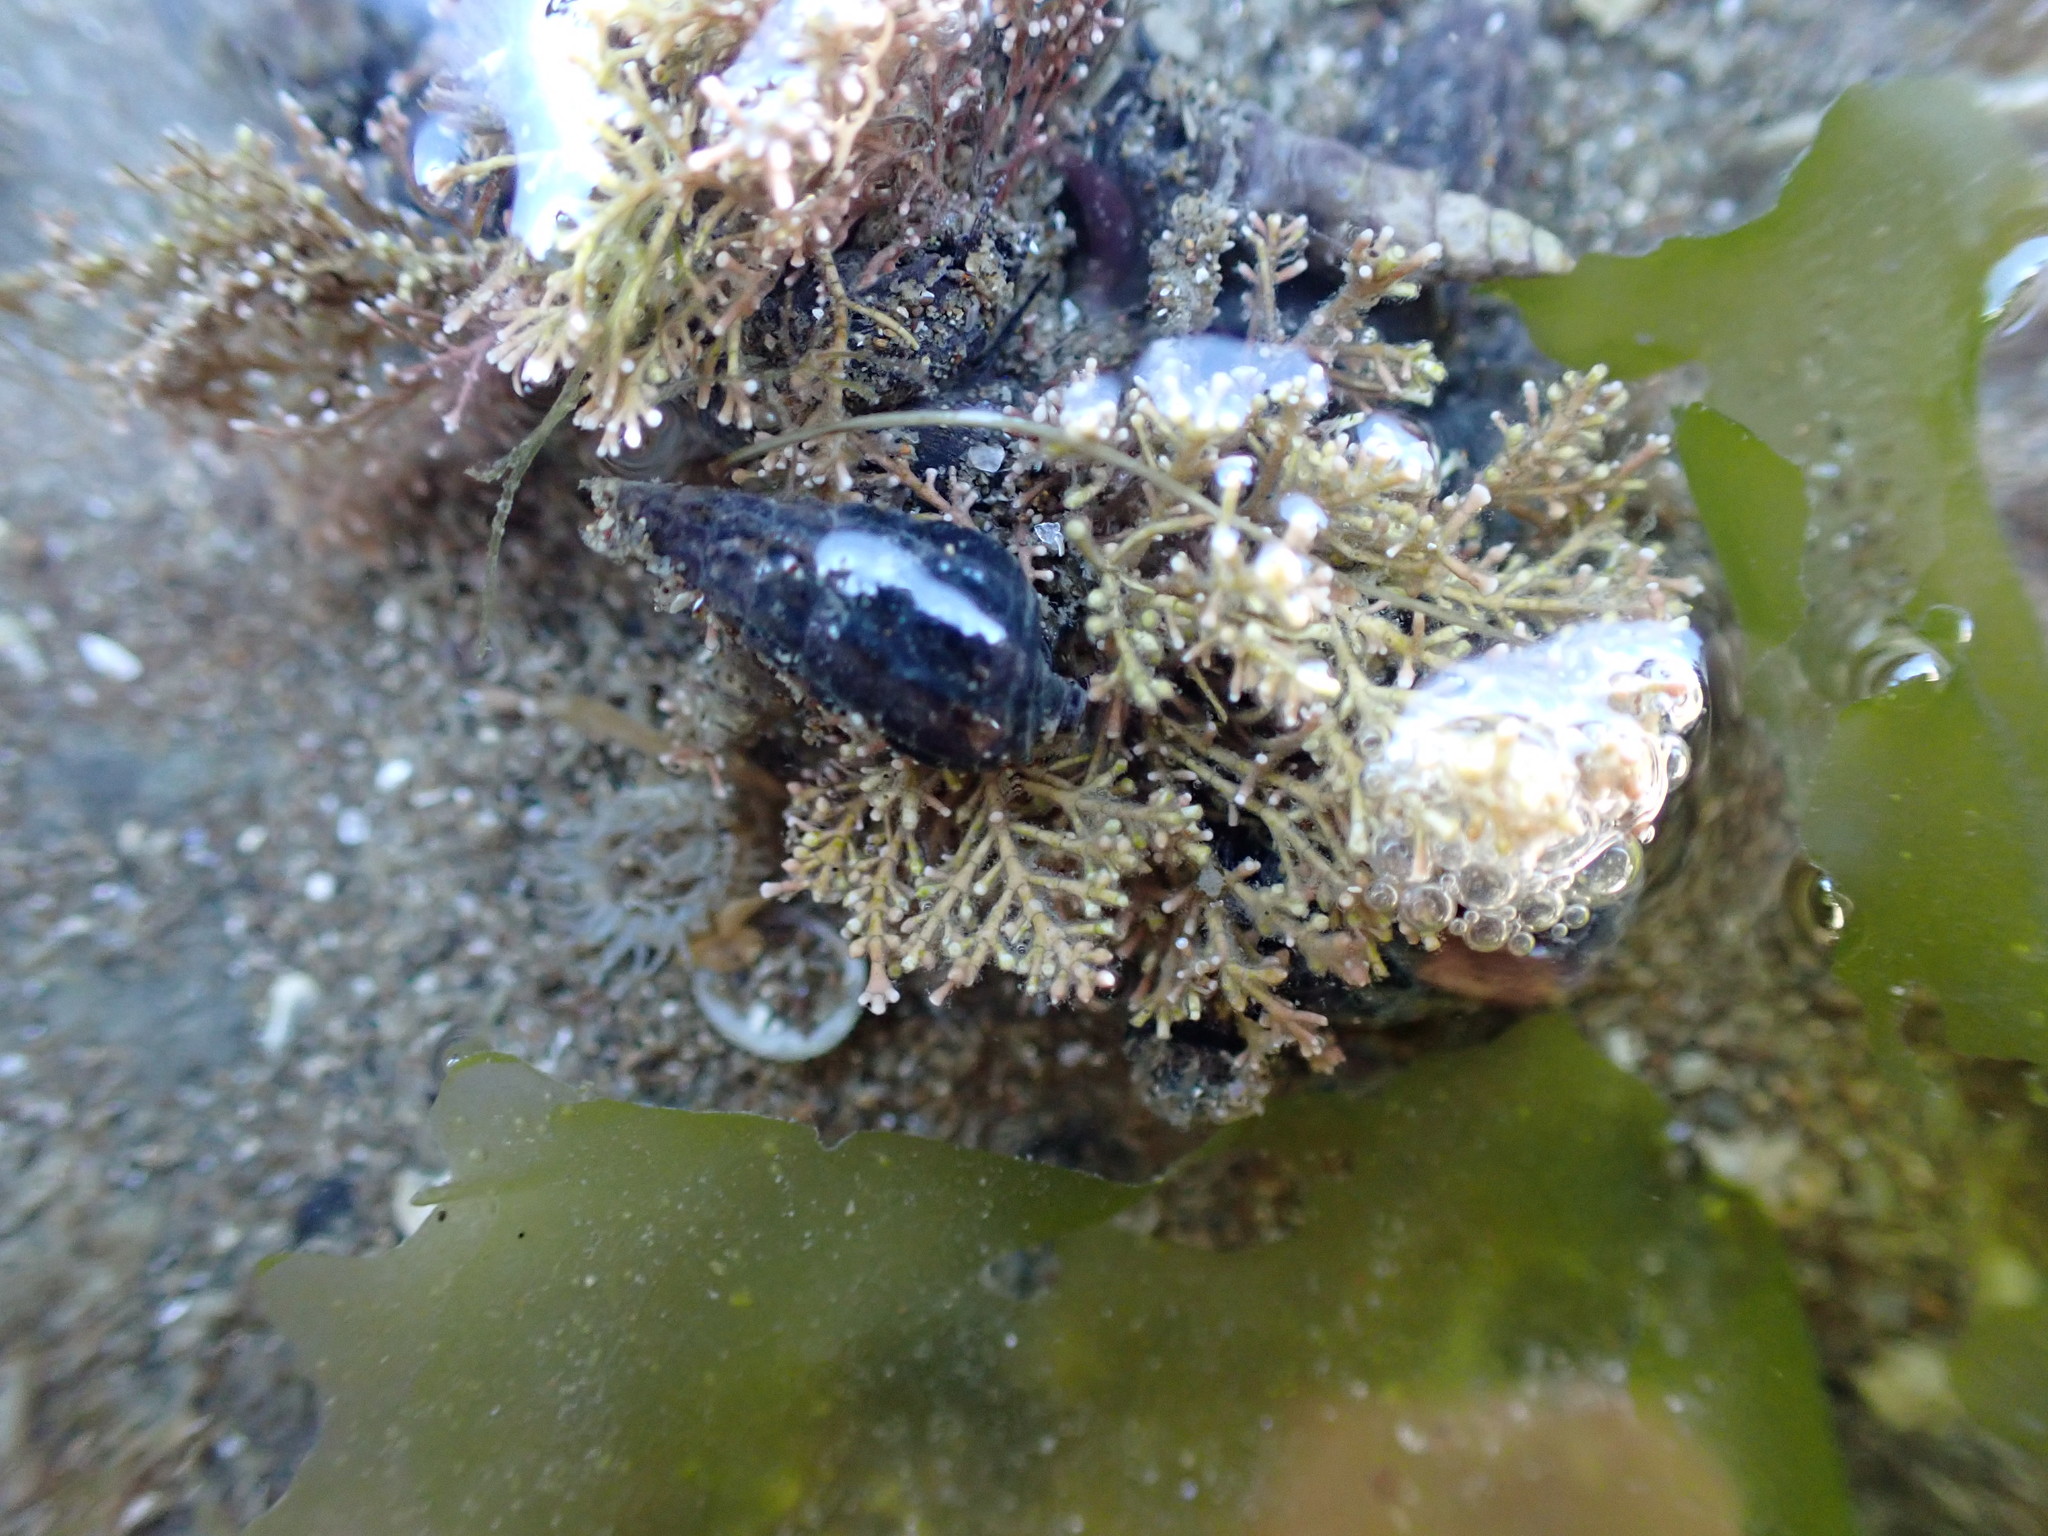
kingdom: Plantae
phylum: Rhodophyta
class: Florideophyceae
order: Corallinales
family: Corallinaceae
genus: Corallina
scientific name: Corallina officinalis
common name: Coral weed
